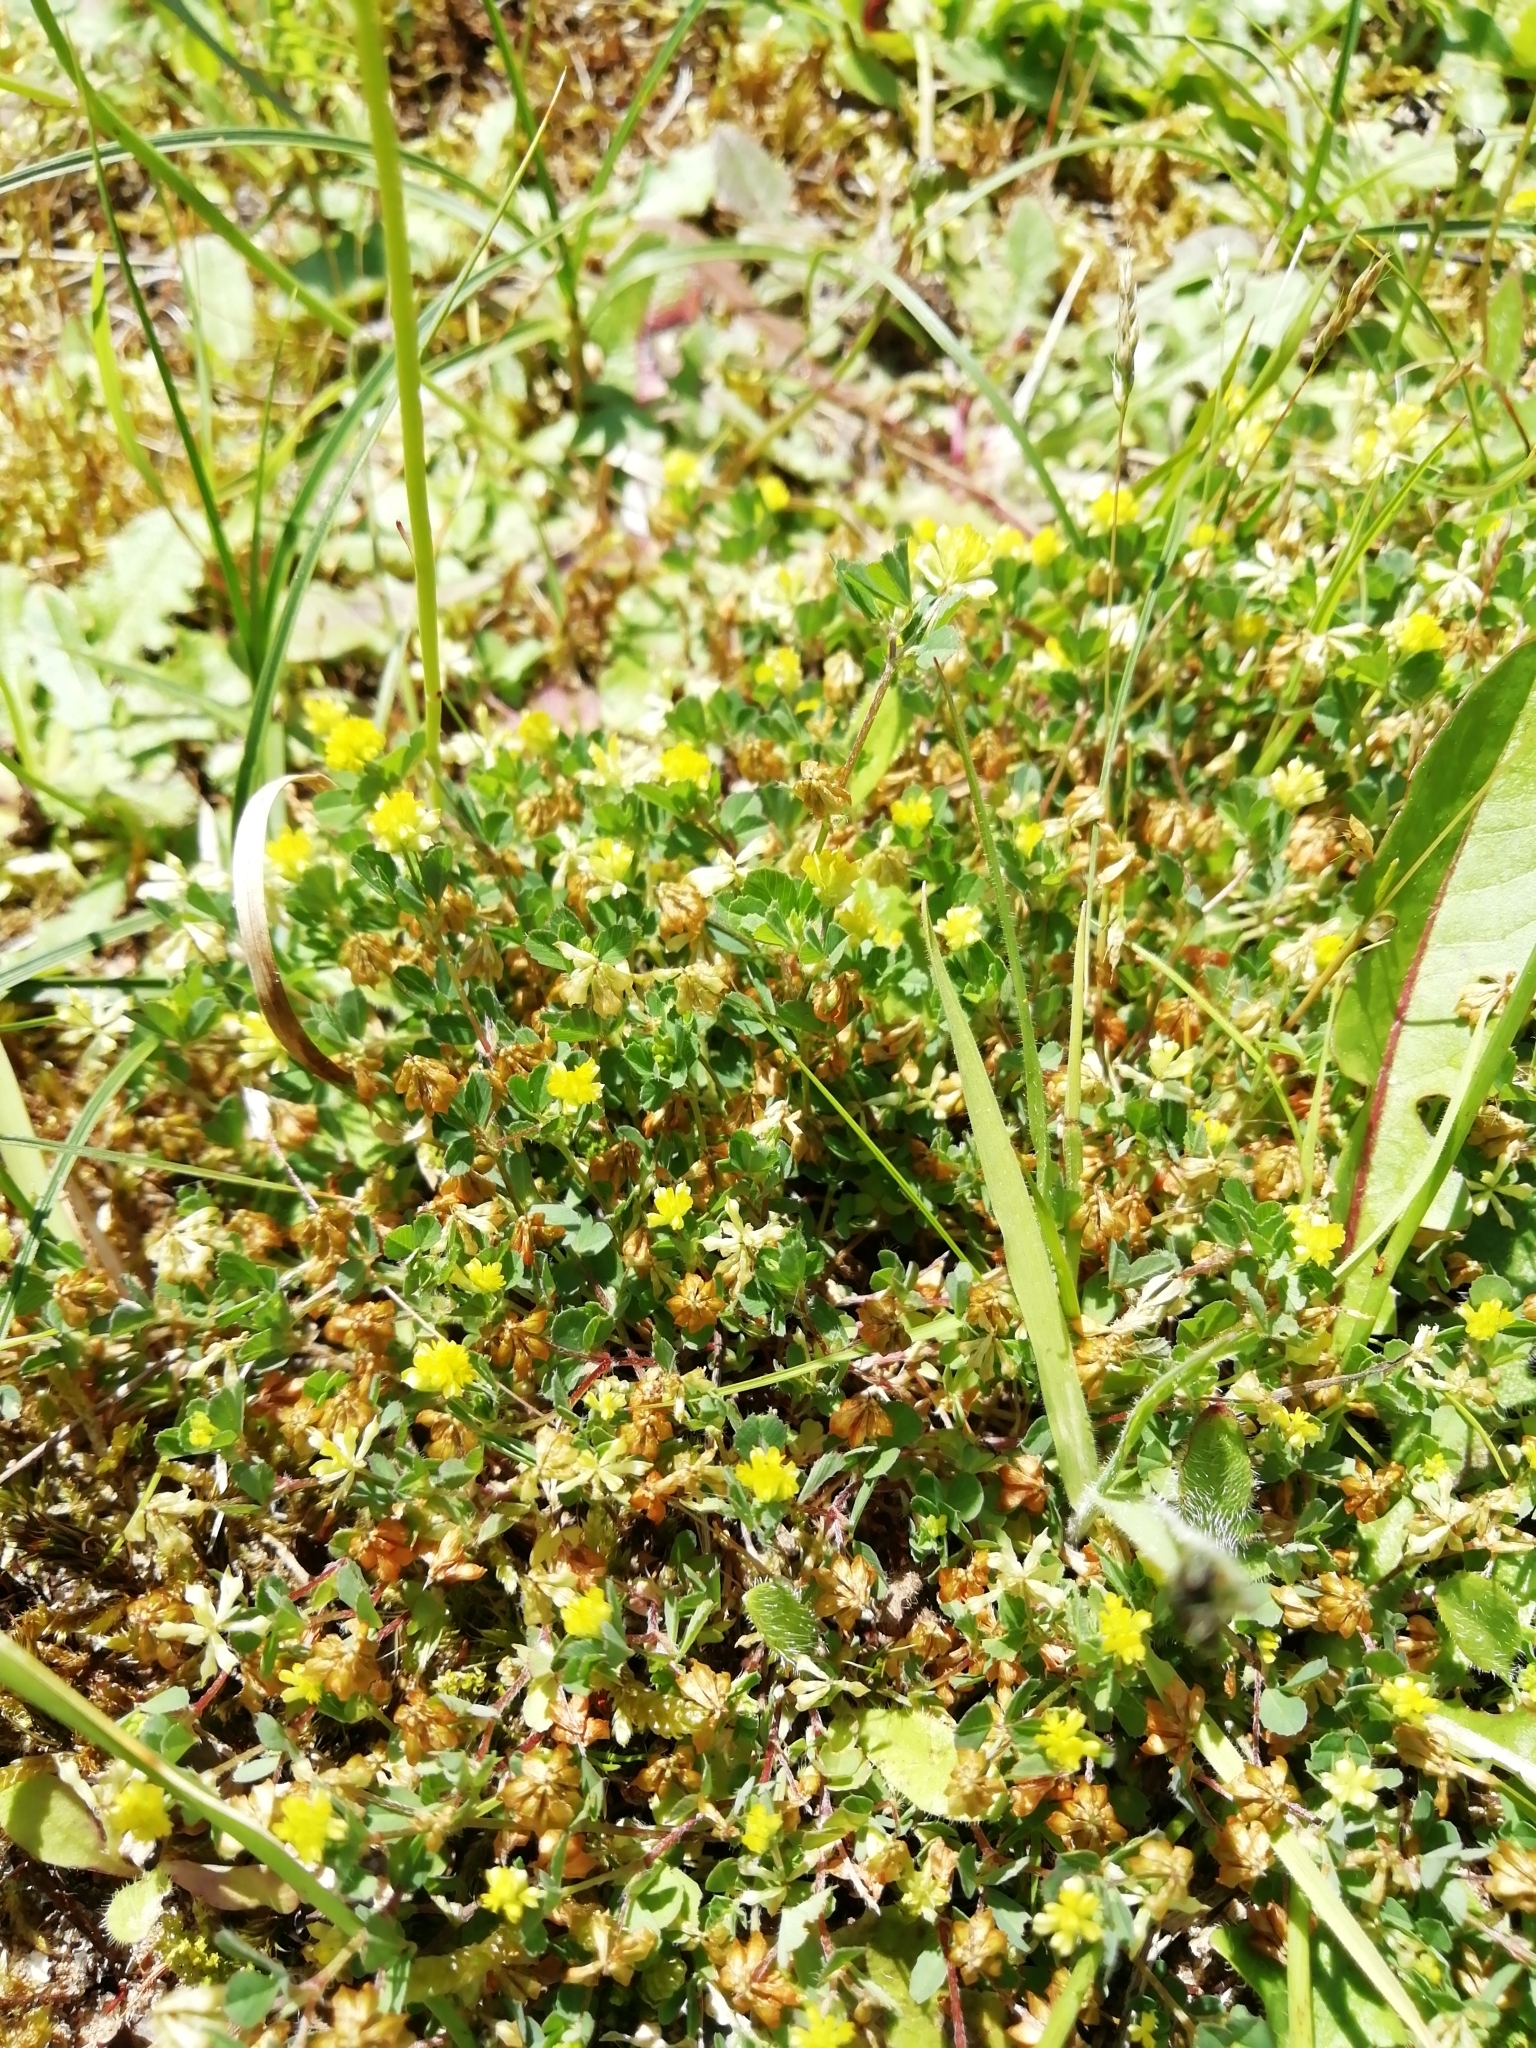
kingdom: Plantae
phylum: Tracheophyta
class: Magnoliopsida
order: Fabales
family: Fabaceae
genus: Trifolium
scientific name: Trifolium dubium
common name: Suckling clover
